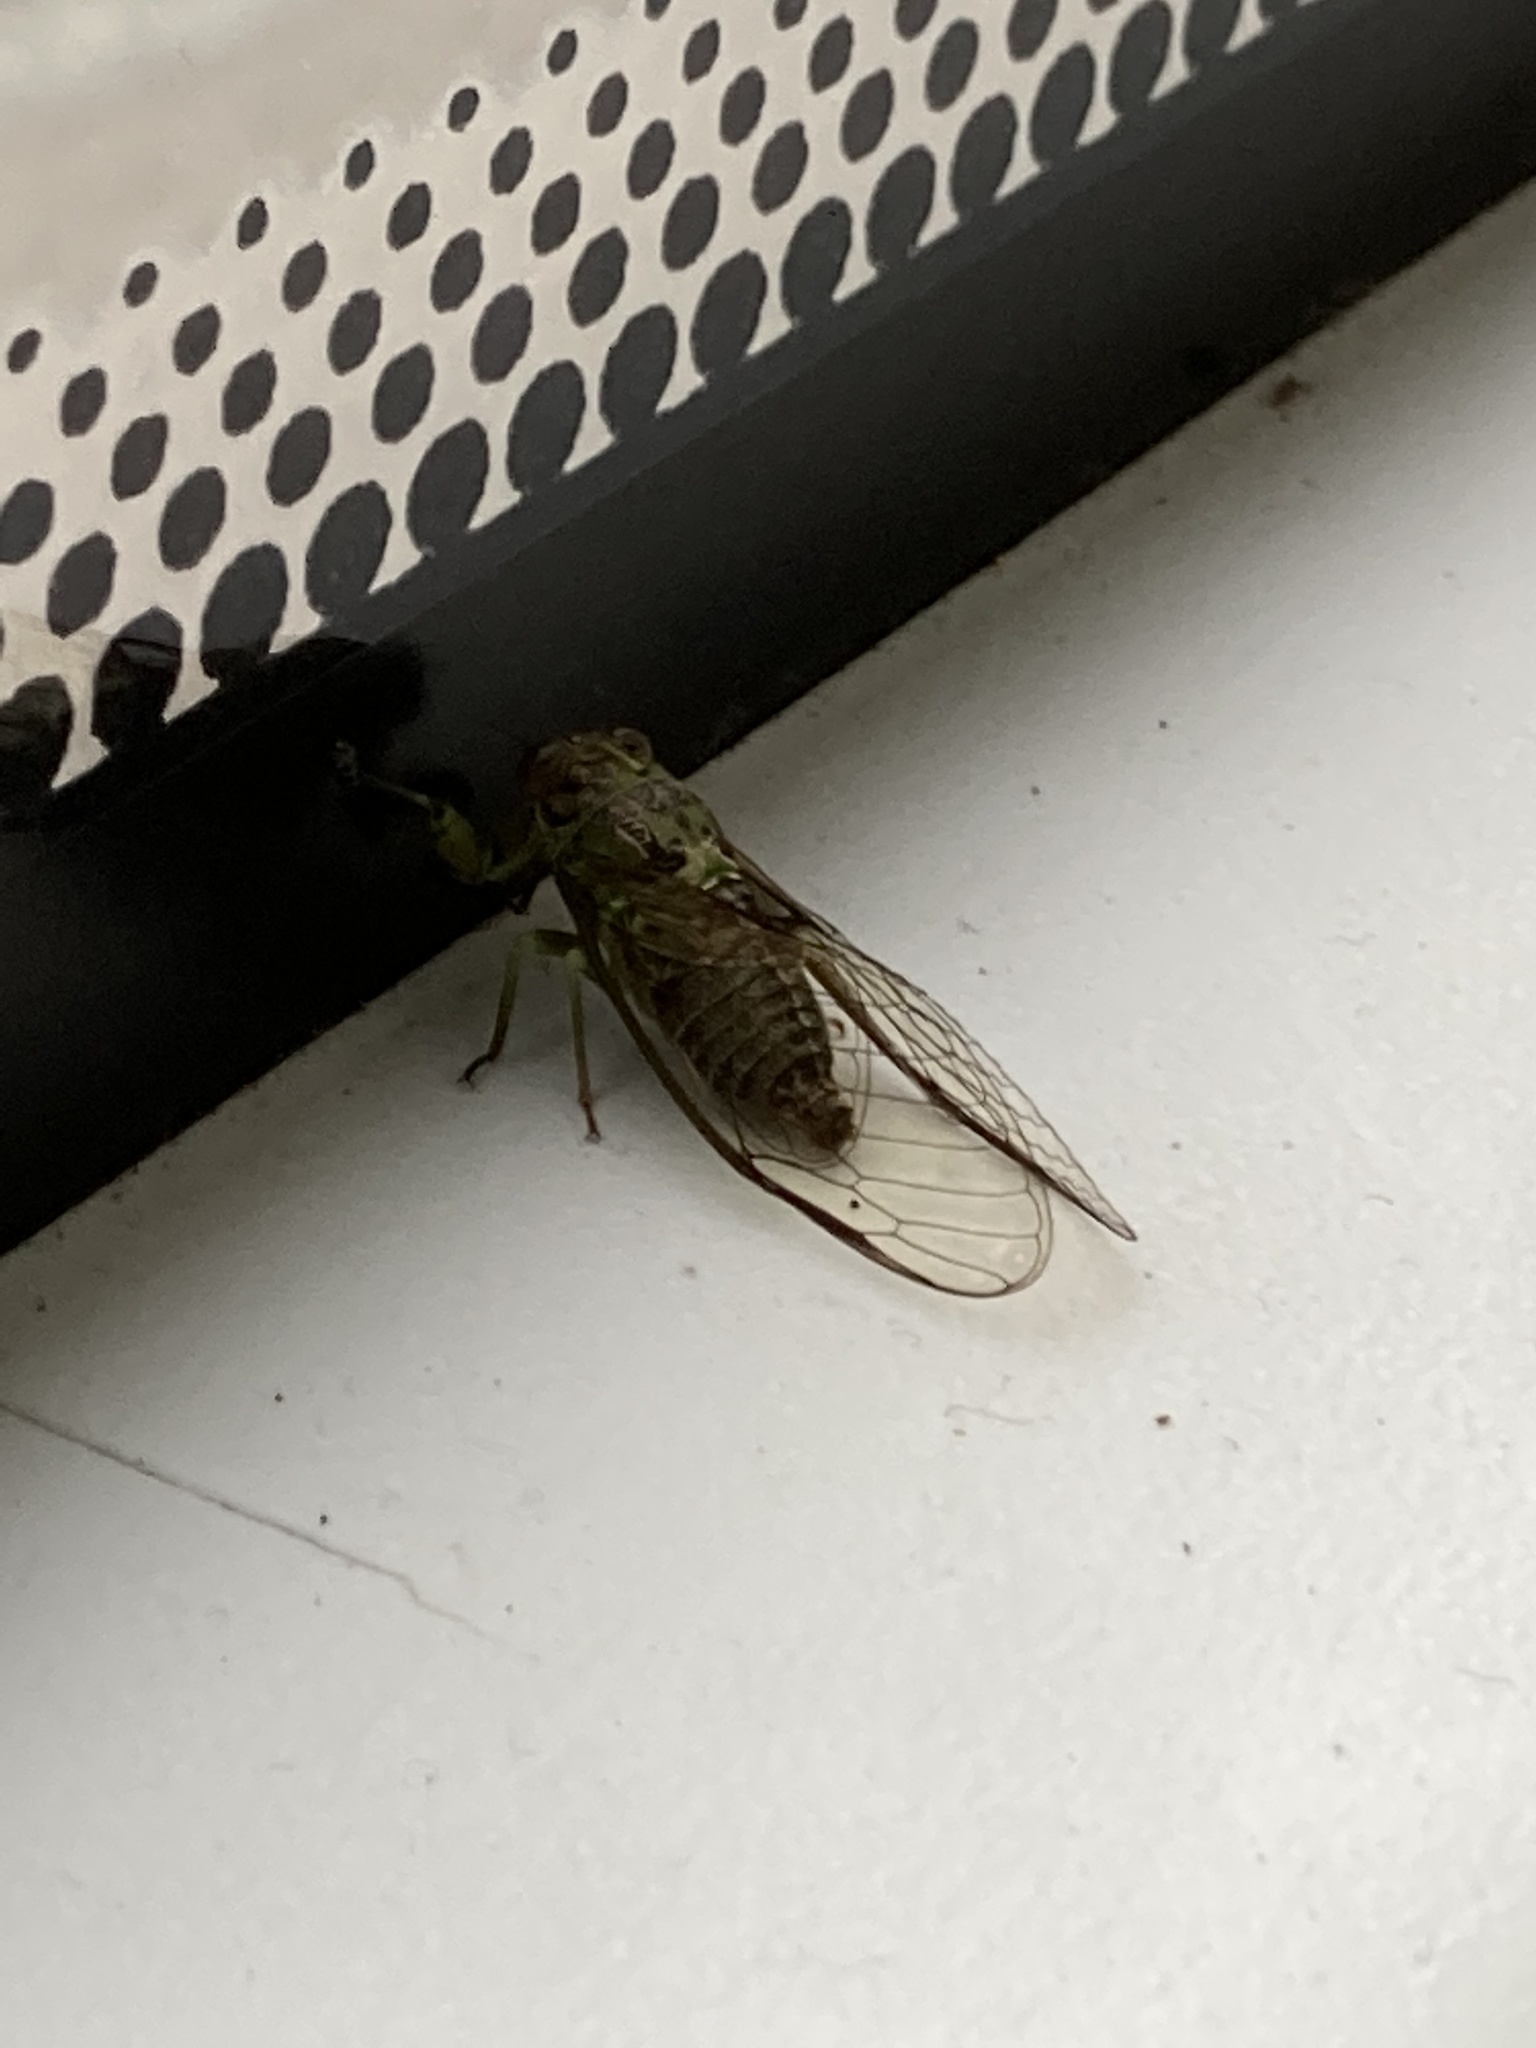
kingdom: Animalia
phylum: Arthropoda
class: Insecta
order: Hemiptera
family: Cicadidae
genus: Kikihia
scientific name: Kikihia scutellaris
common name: Lesser bronze cicada
